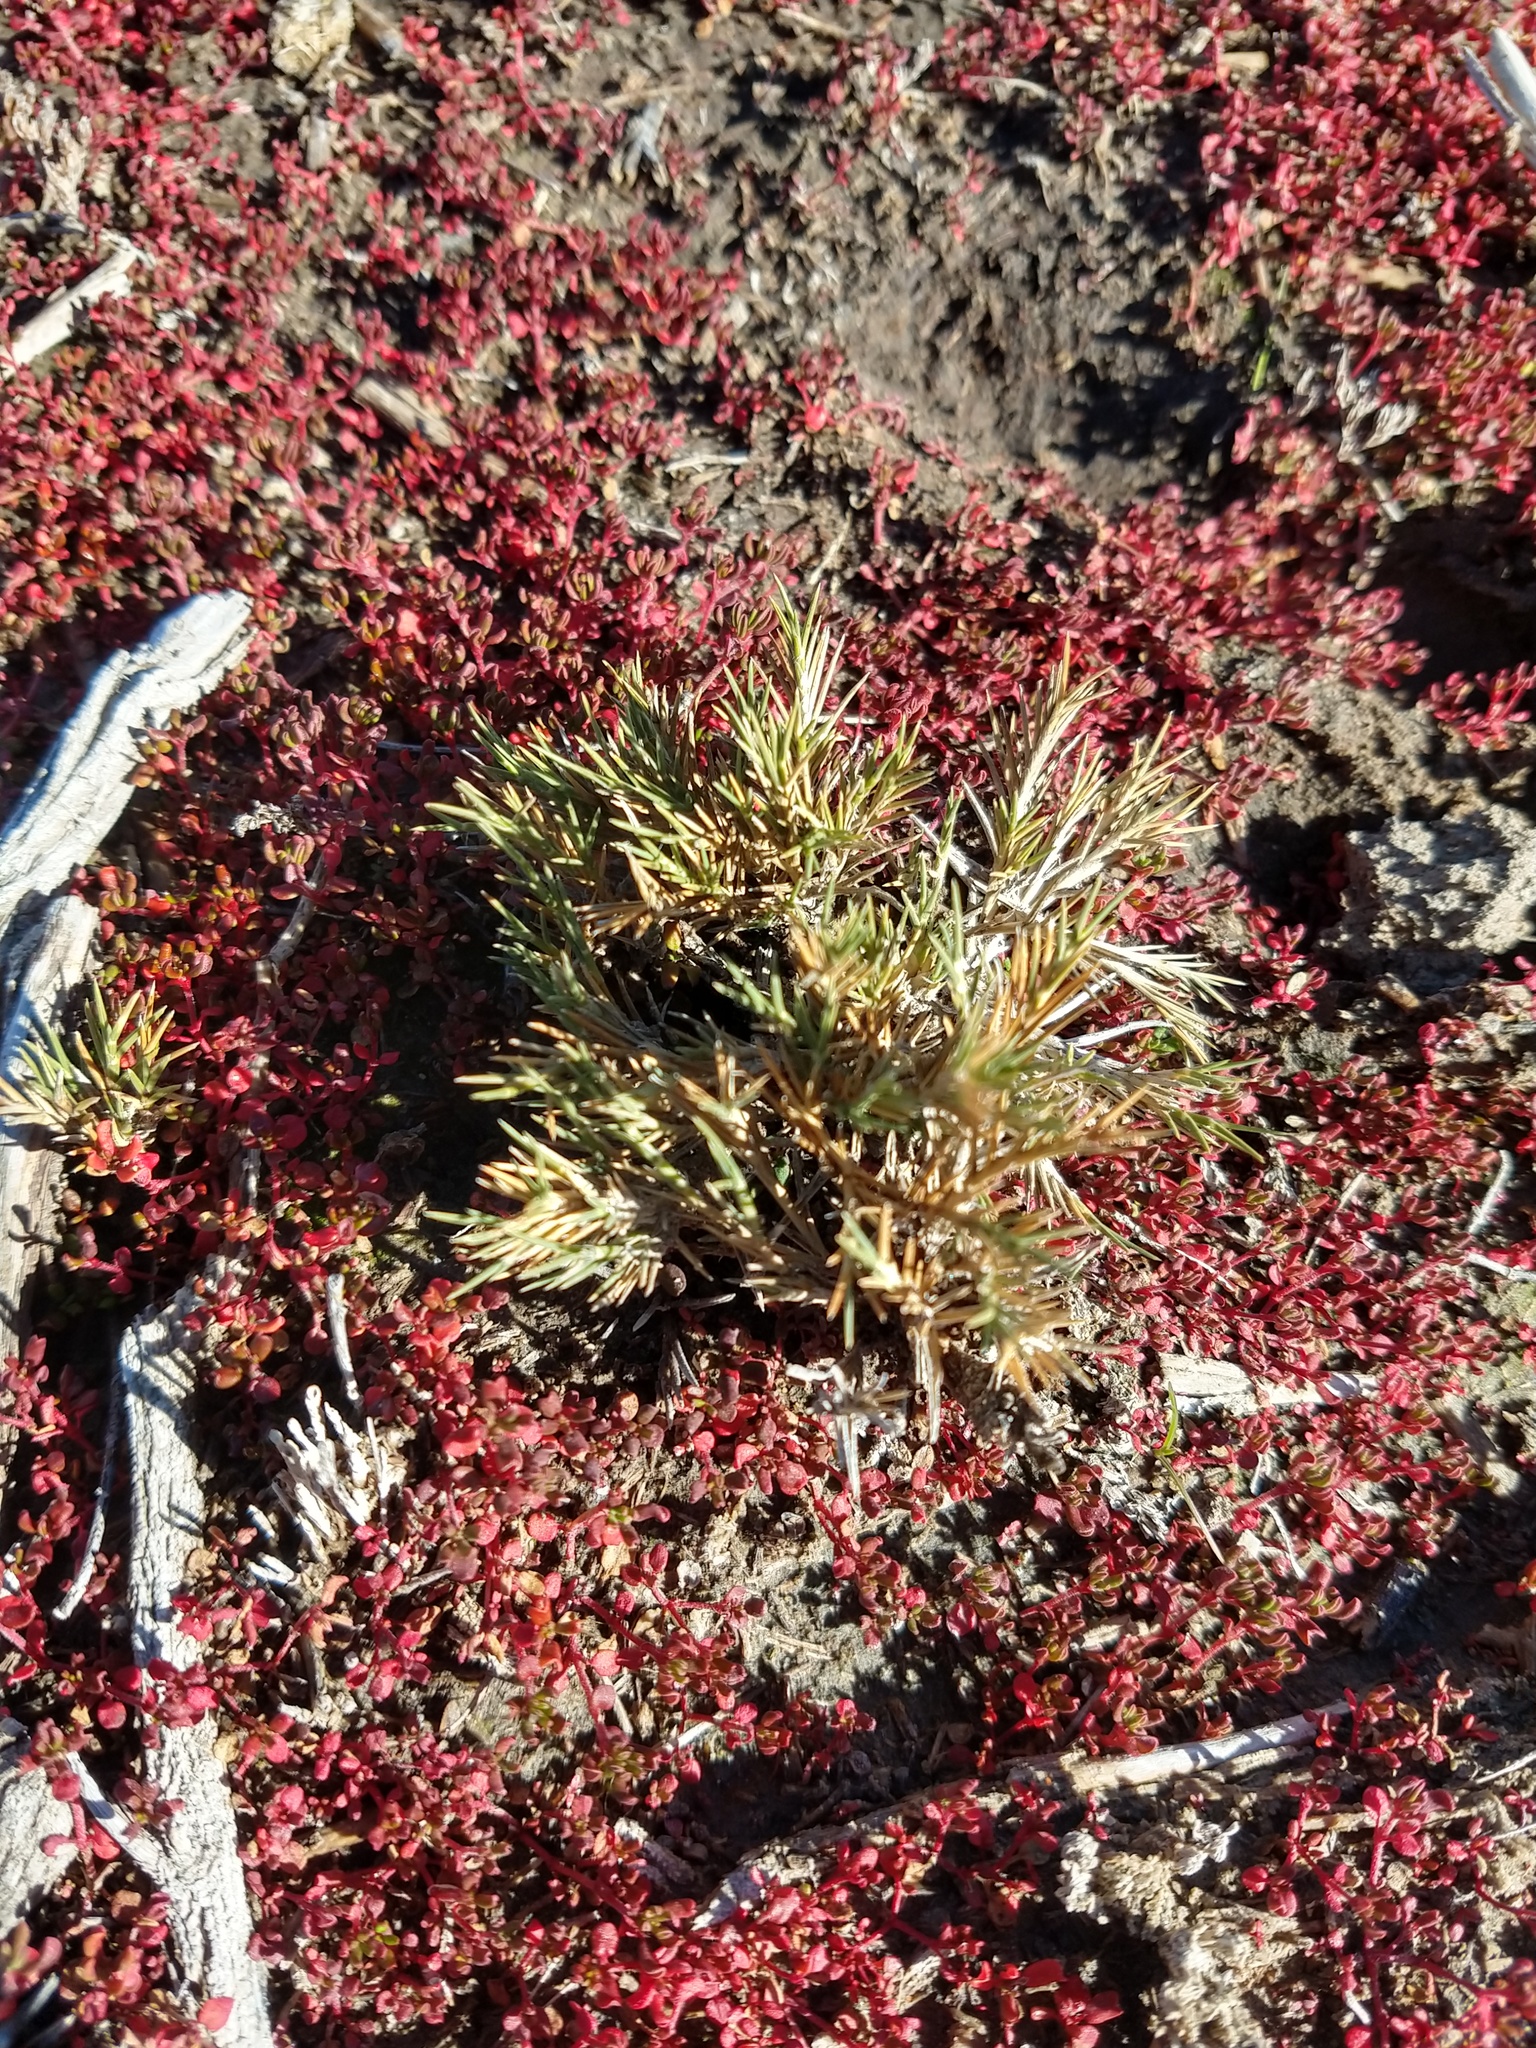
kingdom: Plantae
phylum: Tracheophyta
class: Liliopsida
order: Poales
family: Poaceae
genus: Distichlis
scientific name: Distichlis scoparia
